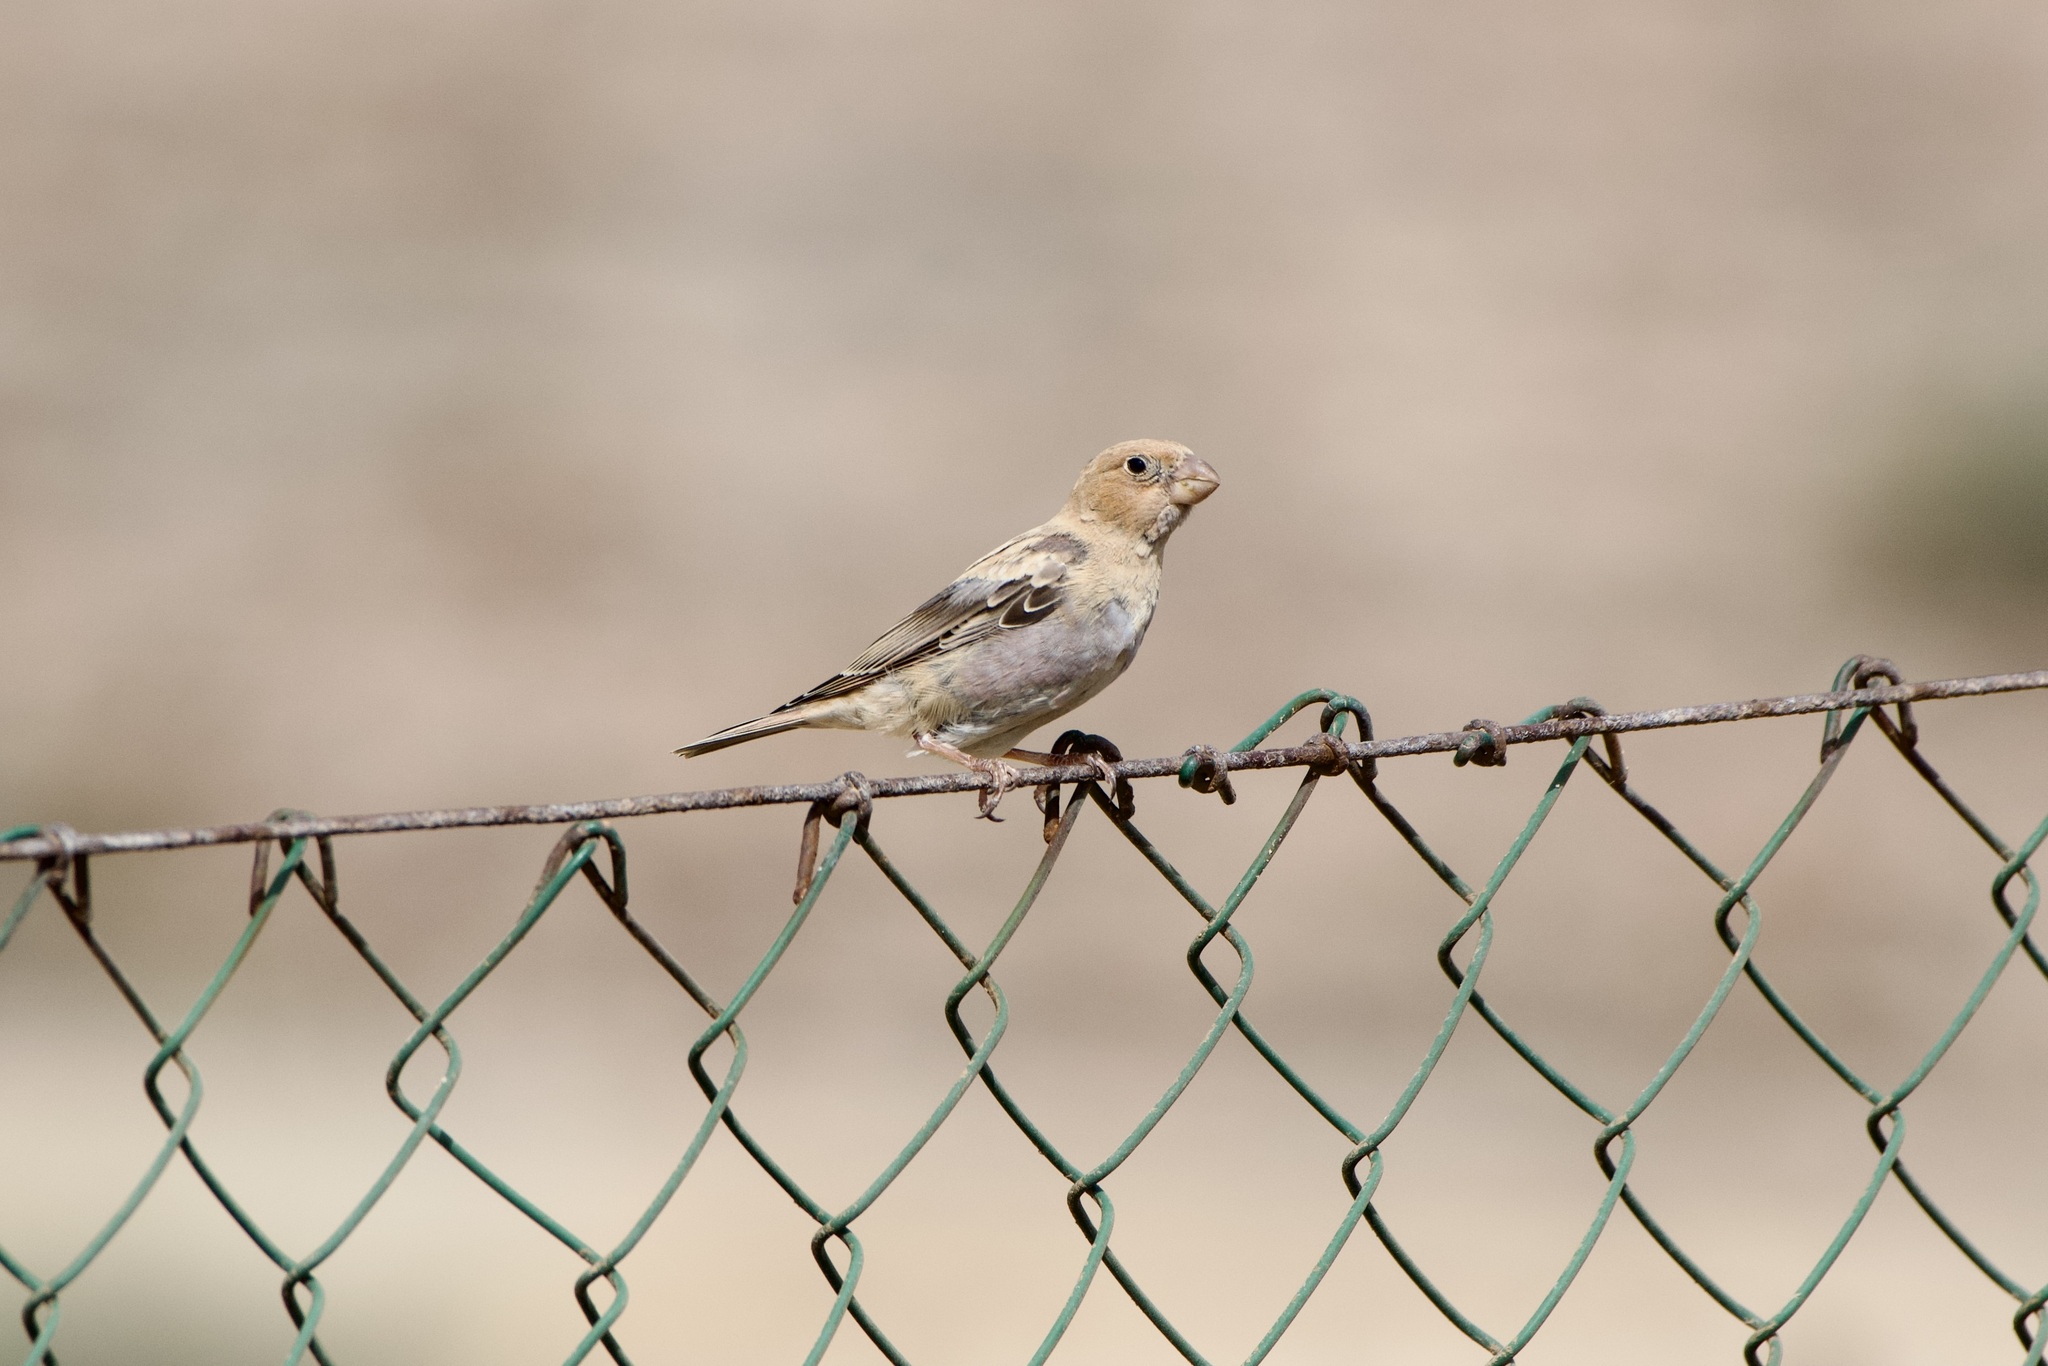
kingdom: Animalia
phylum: Chordata
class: Aves
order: Passeriformes
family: Fringillidae
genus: Bucanetes
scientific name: Bucanetes githagineus
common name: Trumpeter finch
